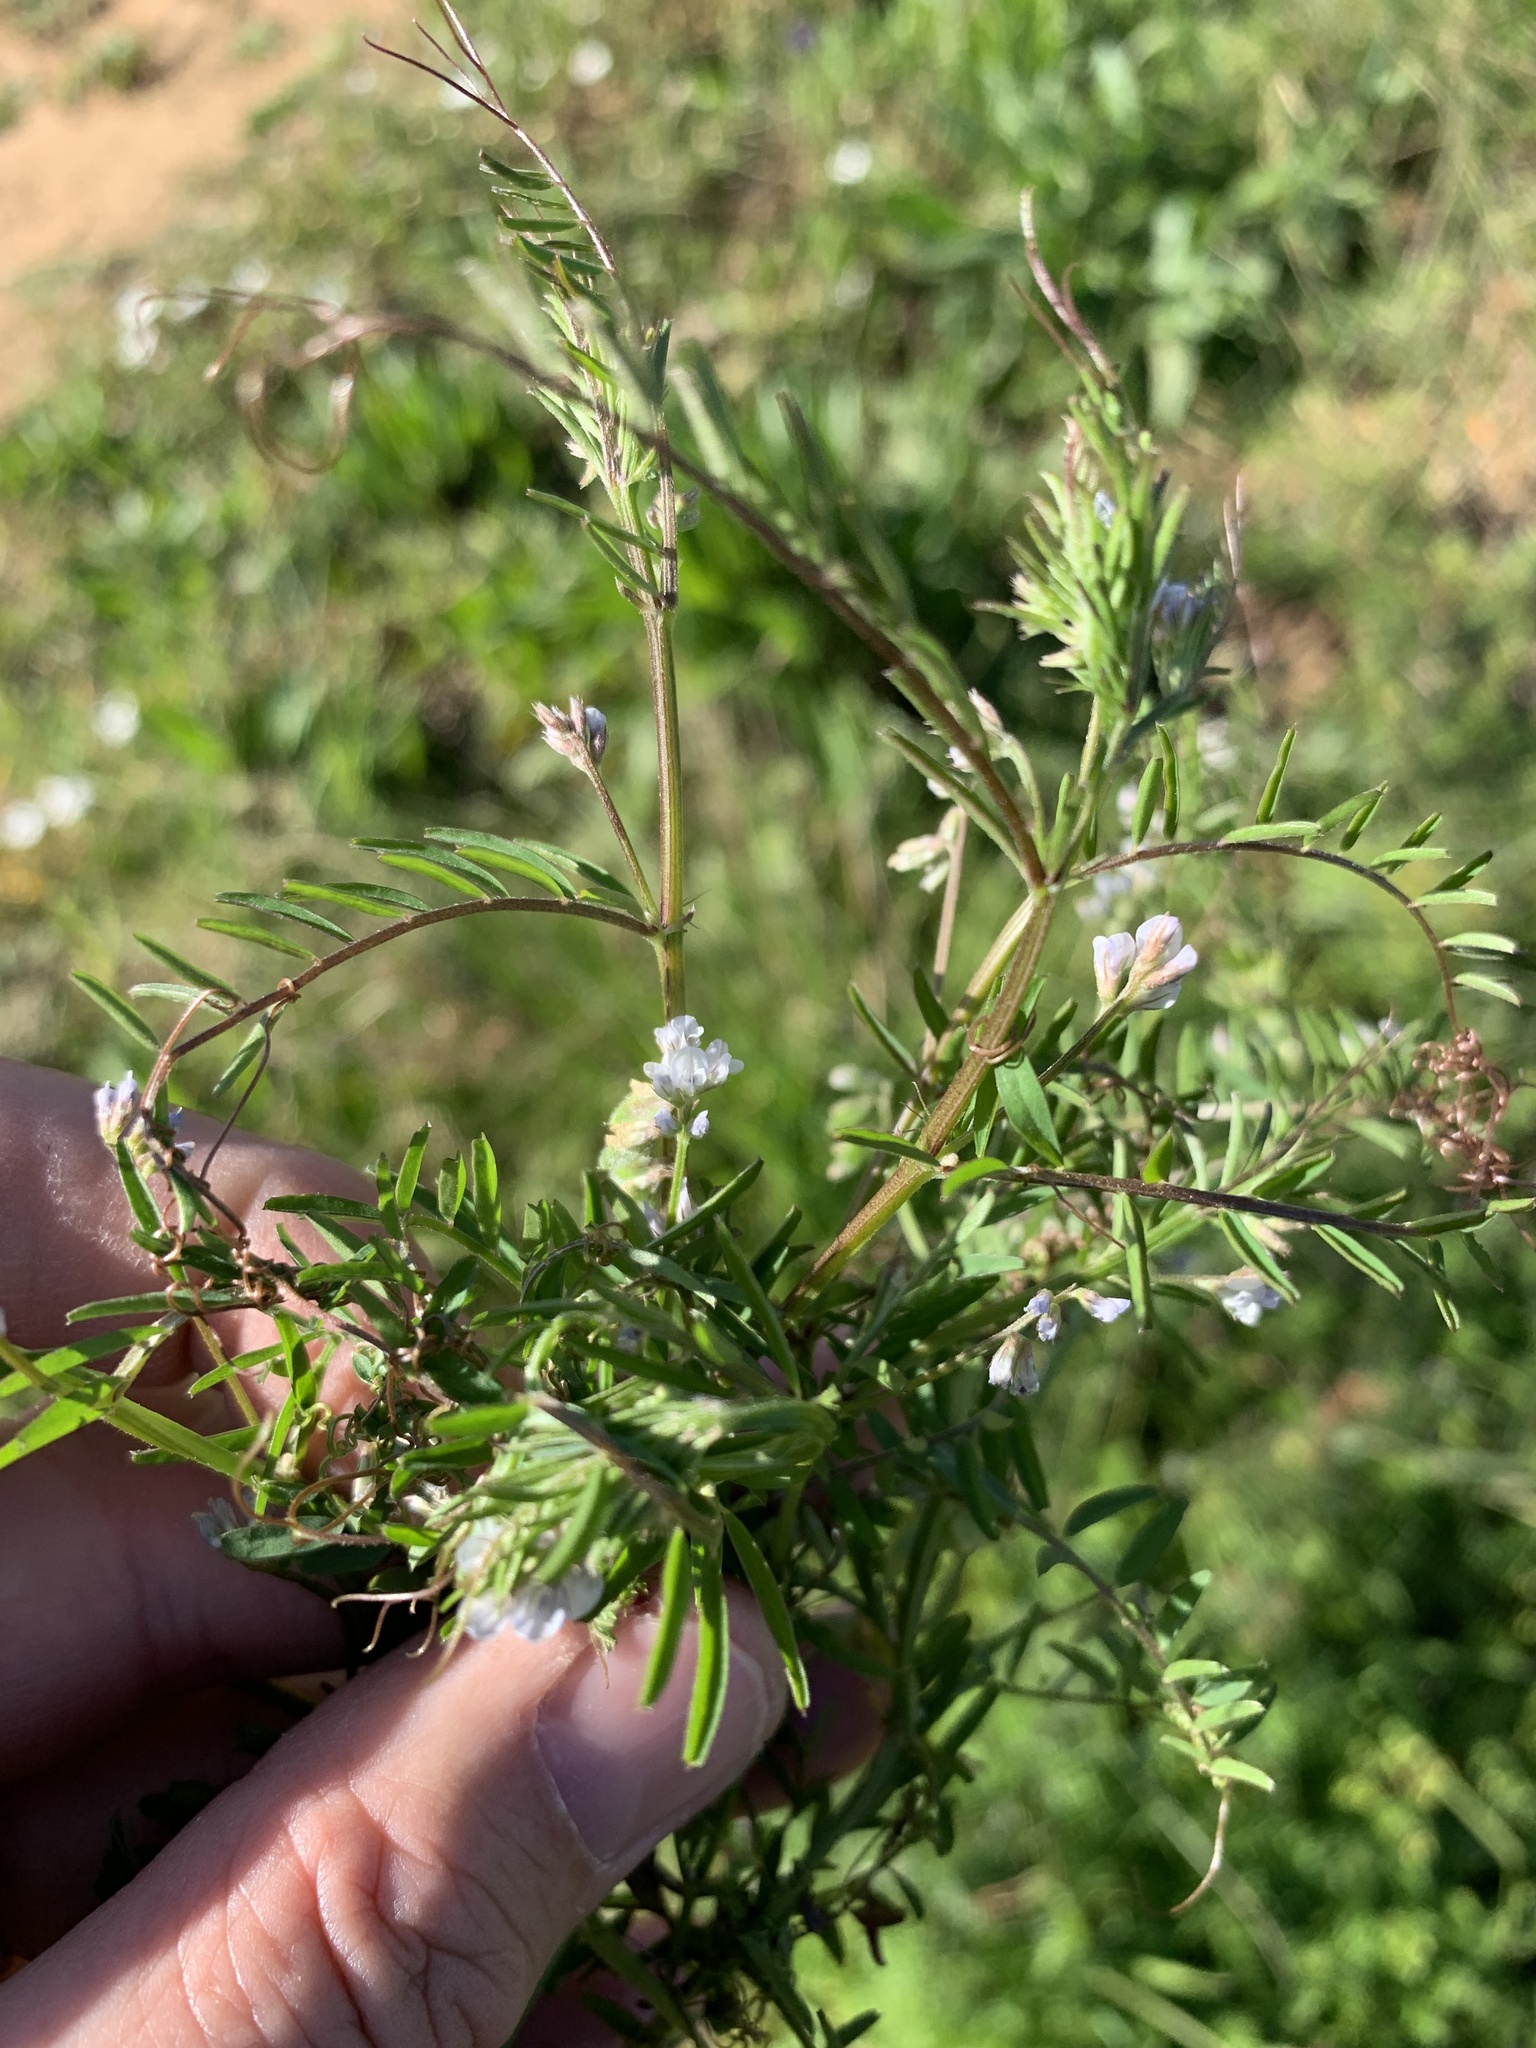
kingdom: Plantae
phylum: Tracheophyta
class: Magnoliopsida
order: Fabales
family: Fabaceae
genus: Vicia
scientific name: Vicia hirsuta
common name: Tiny vetch
